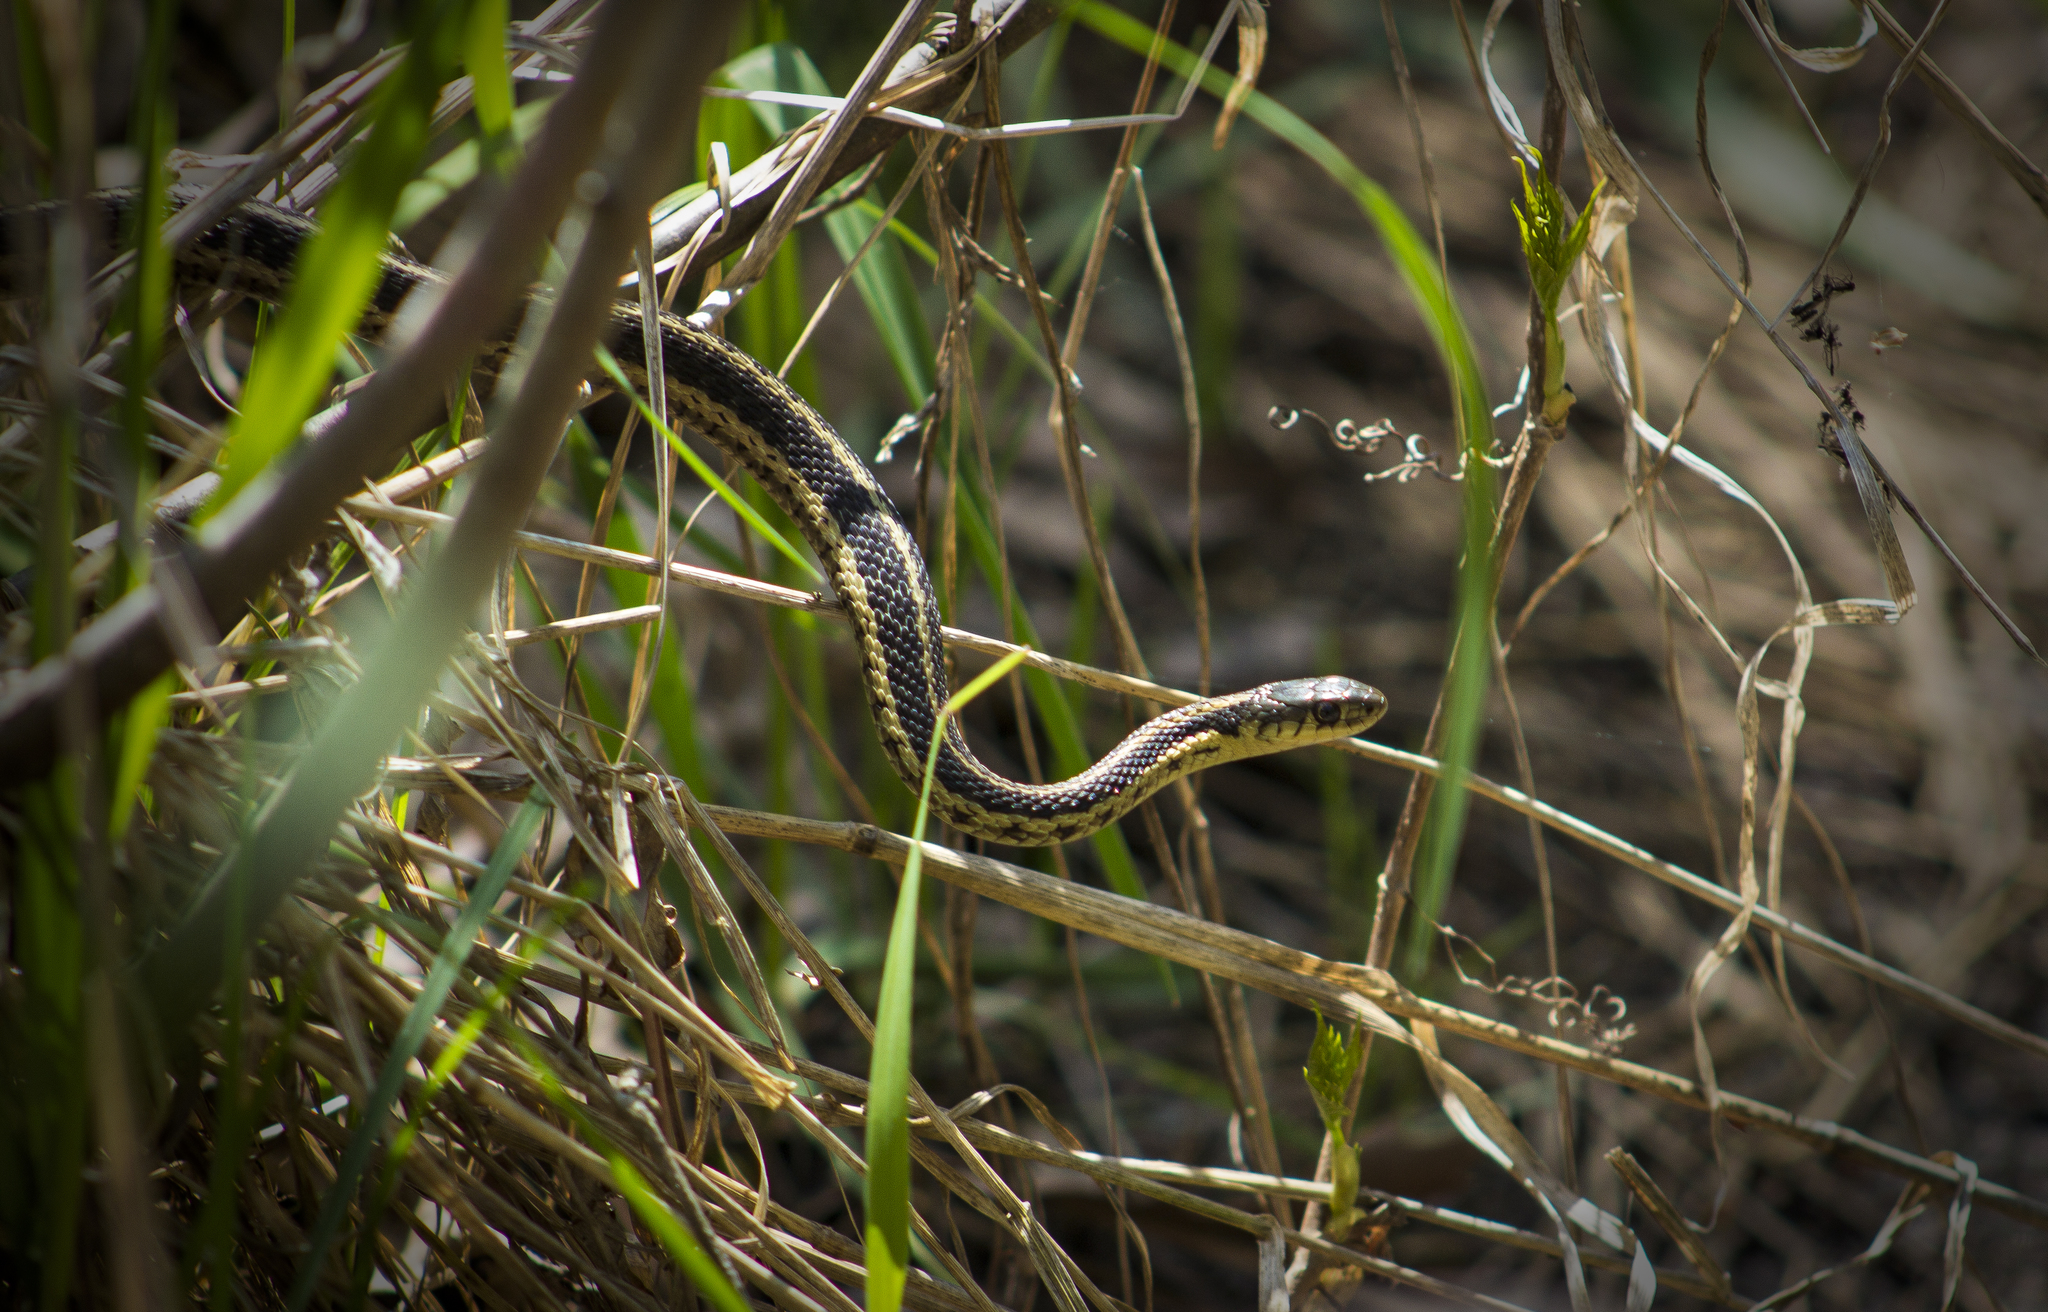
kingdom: Animalia
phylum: Chordata
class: Squamata
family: Colubridae
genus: Thamnophis
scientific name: Thamnophis sirtalis
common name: Common garter snake
